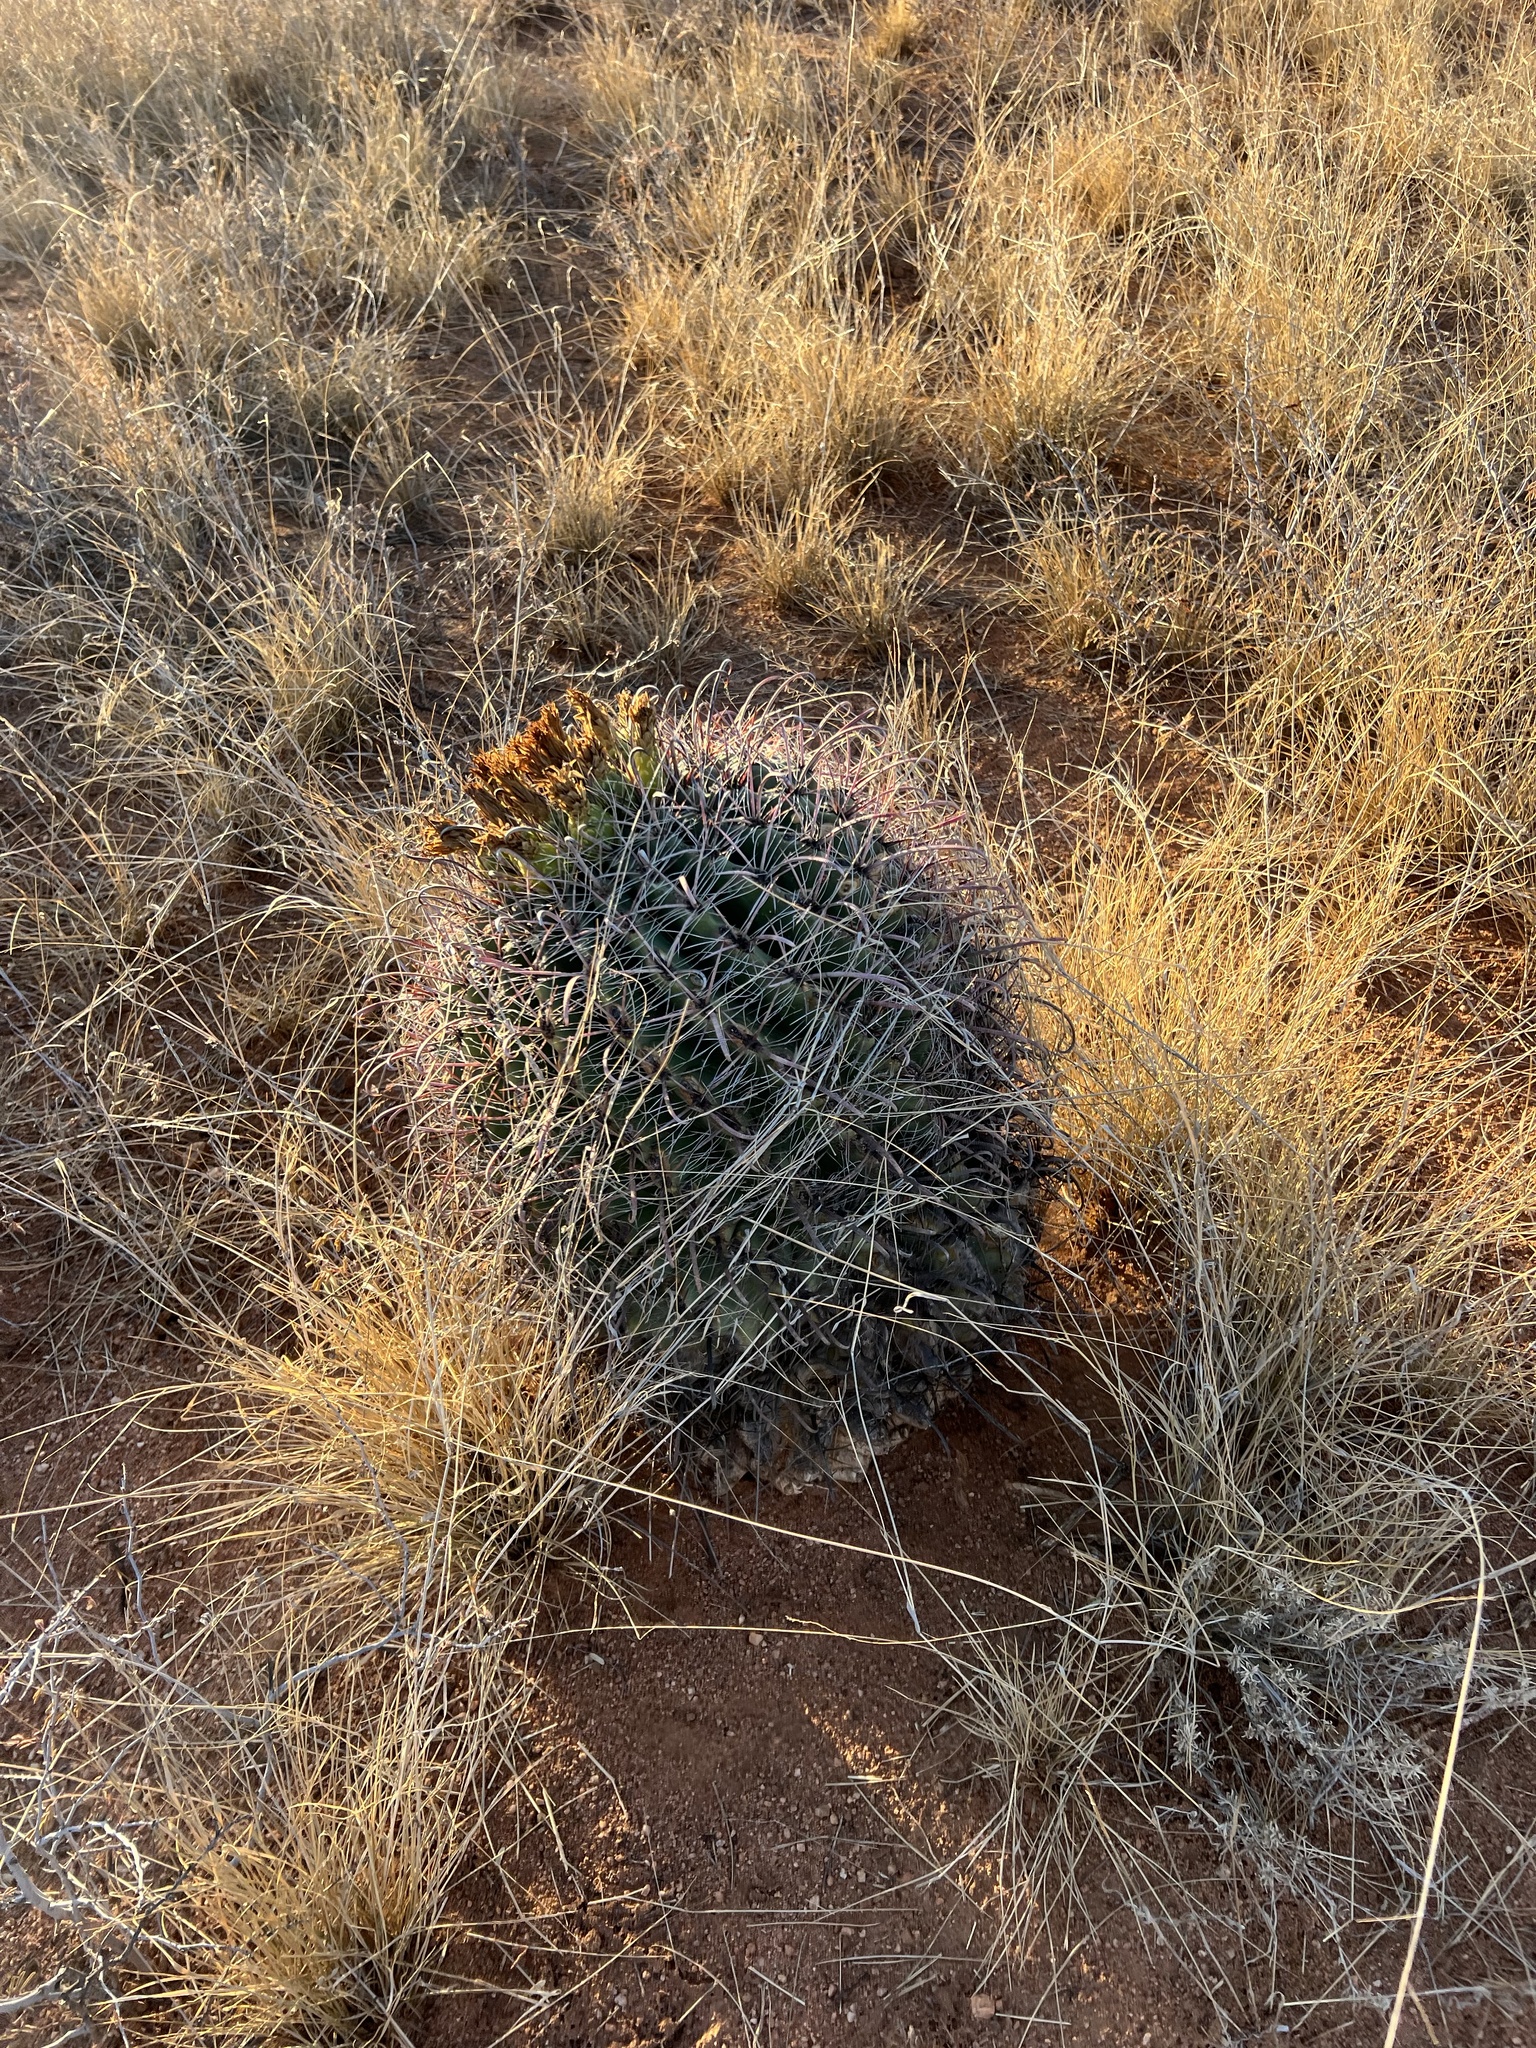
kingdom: Plantae
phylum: Tracheophyta
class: Magnoliopsida
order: Caryophyllales
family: Cactaceae
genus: Ferocactus
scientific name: Ferocactus wislizeni
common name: Candy barrel cactus
